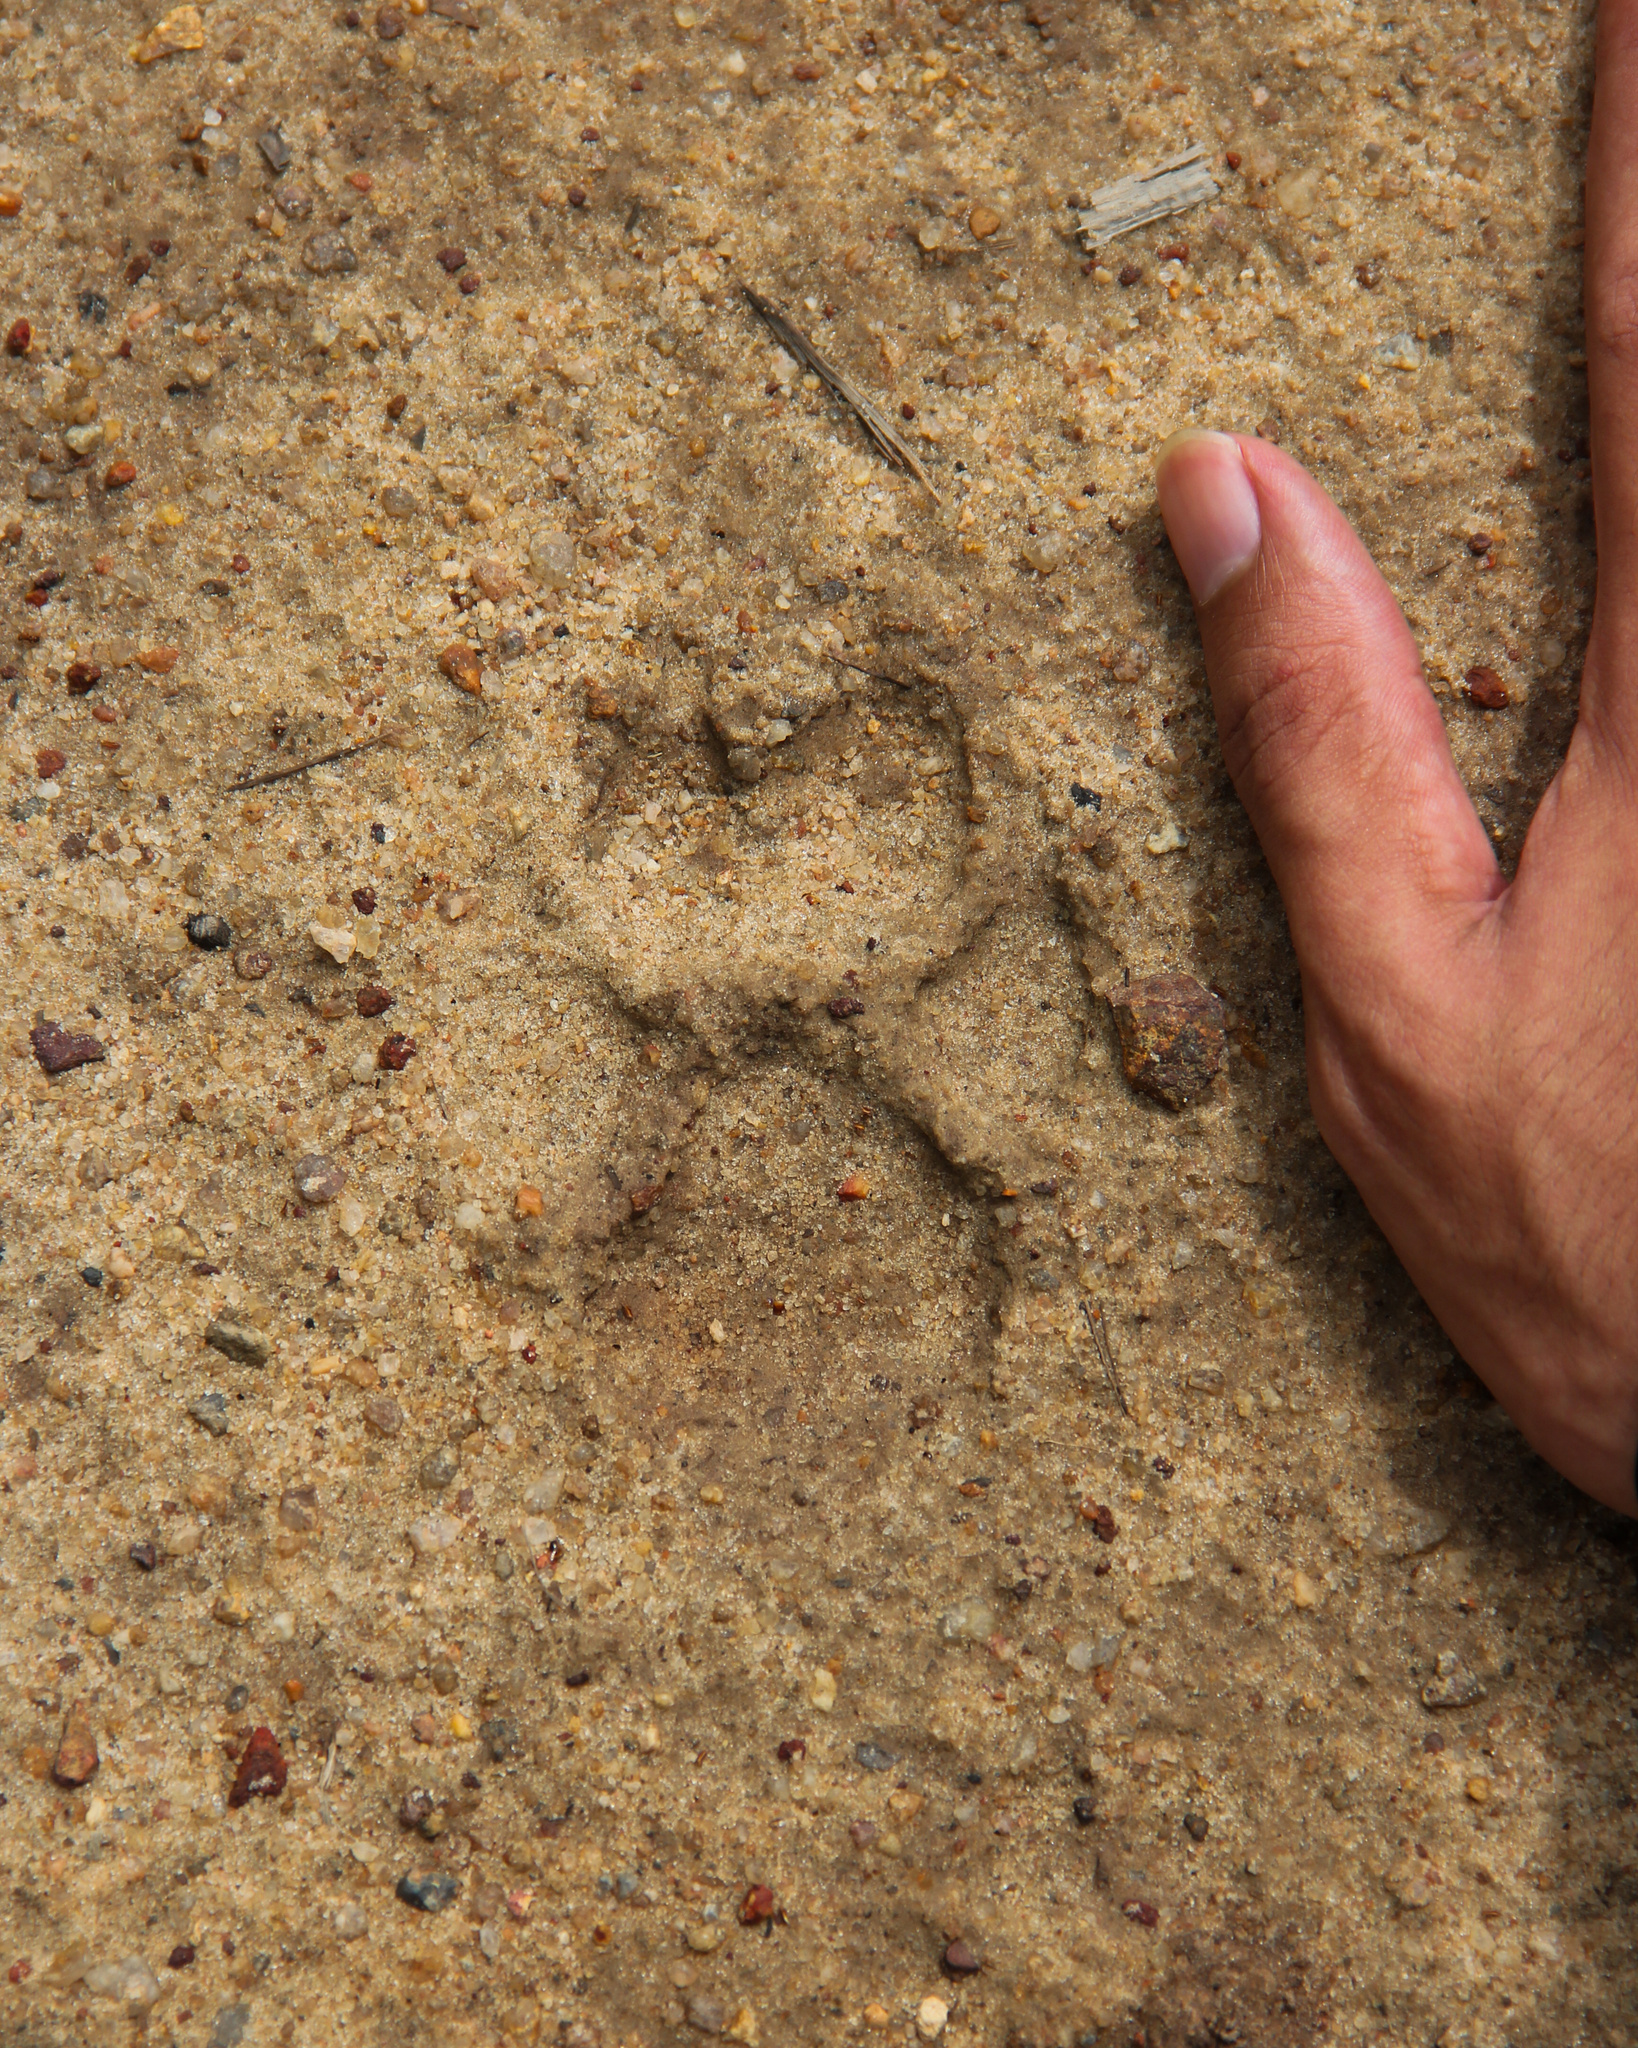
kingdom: Animalia
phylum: Chordata
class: Mammalia
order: Carnivora
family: Canidae
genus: Canis
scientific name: Canis lupus
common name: Gray wolf
